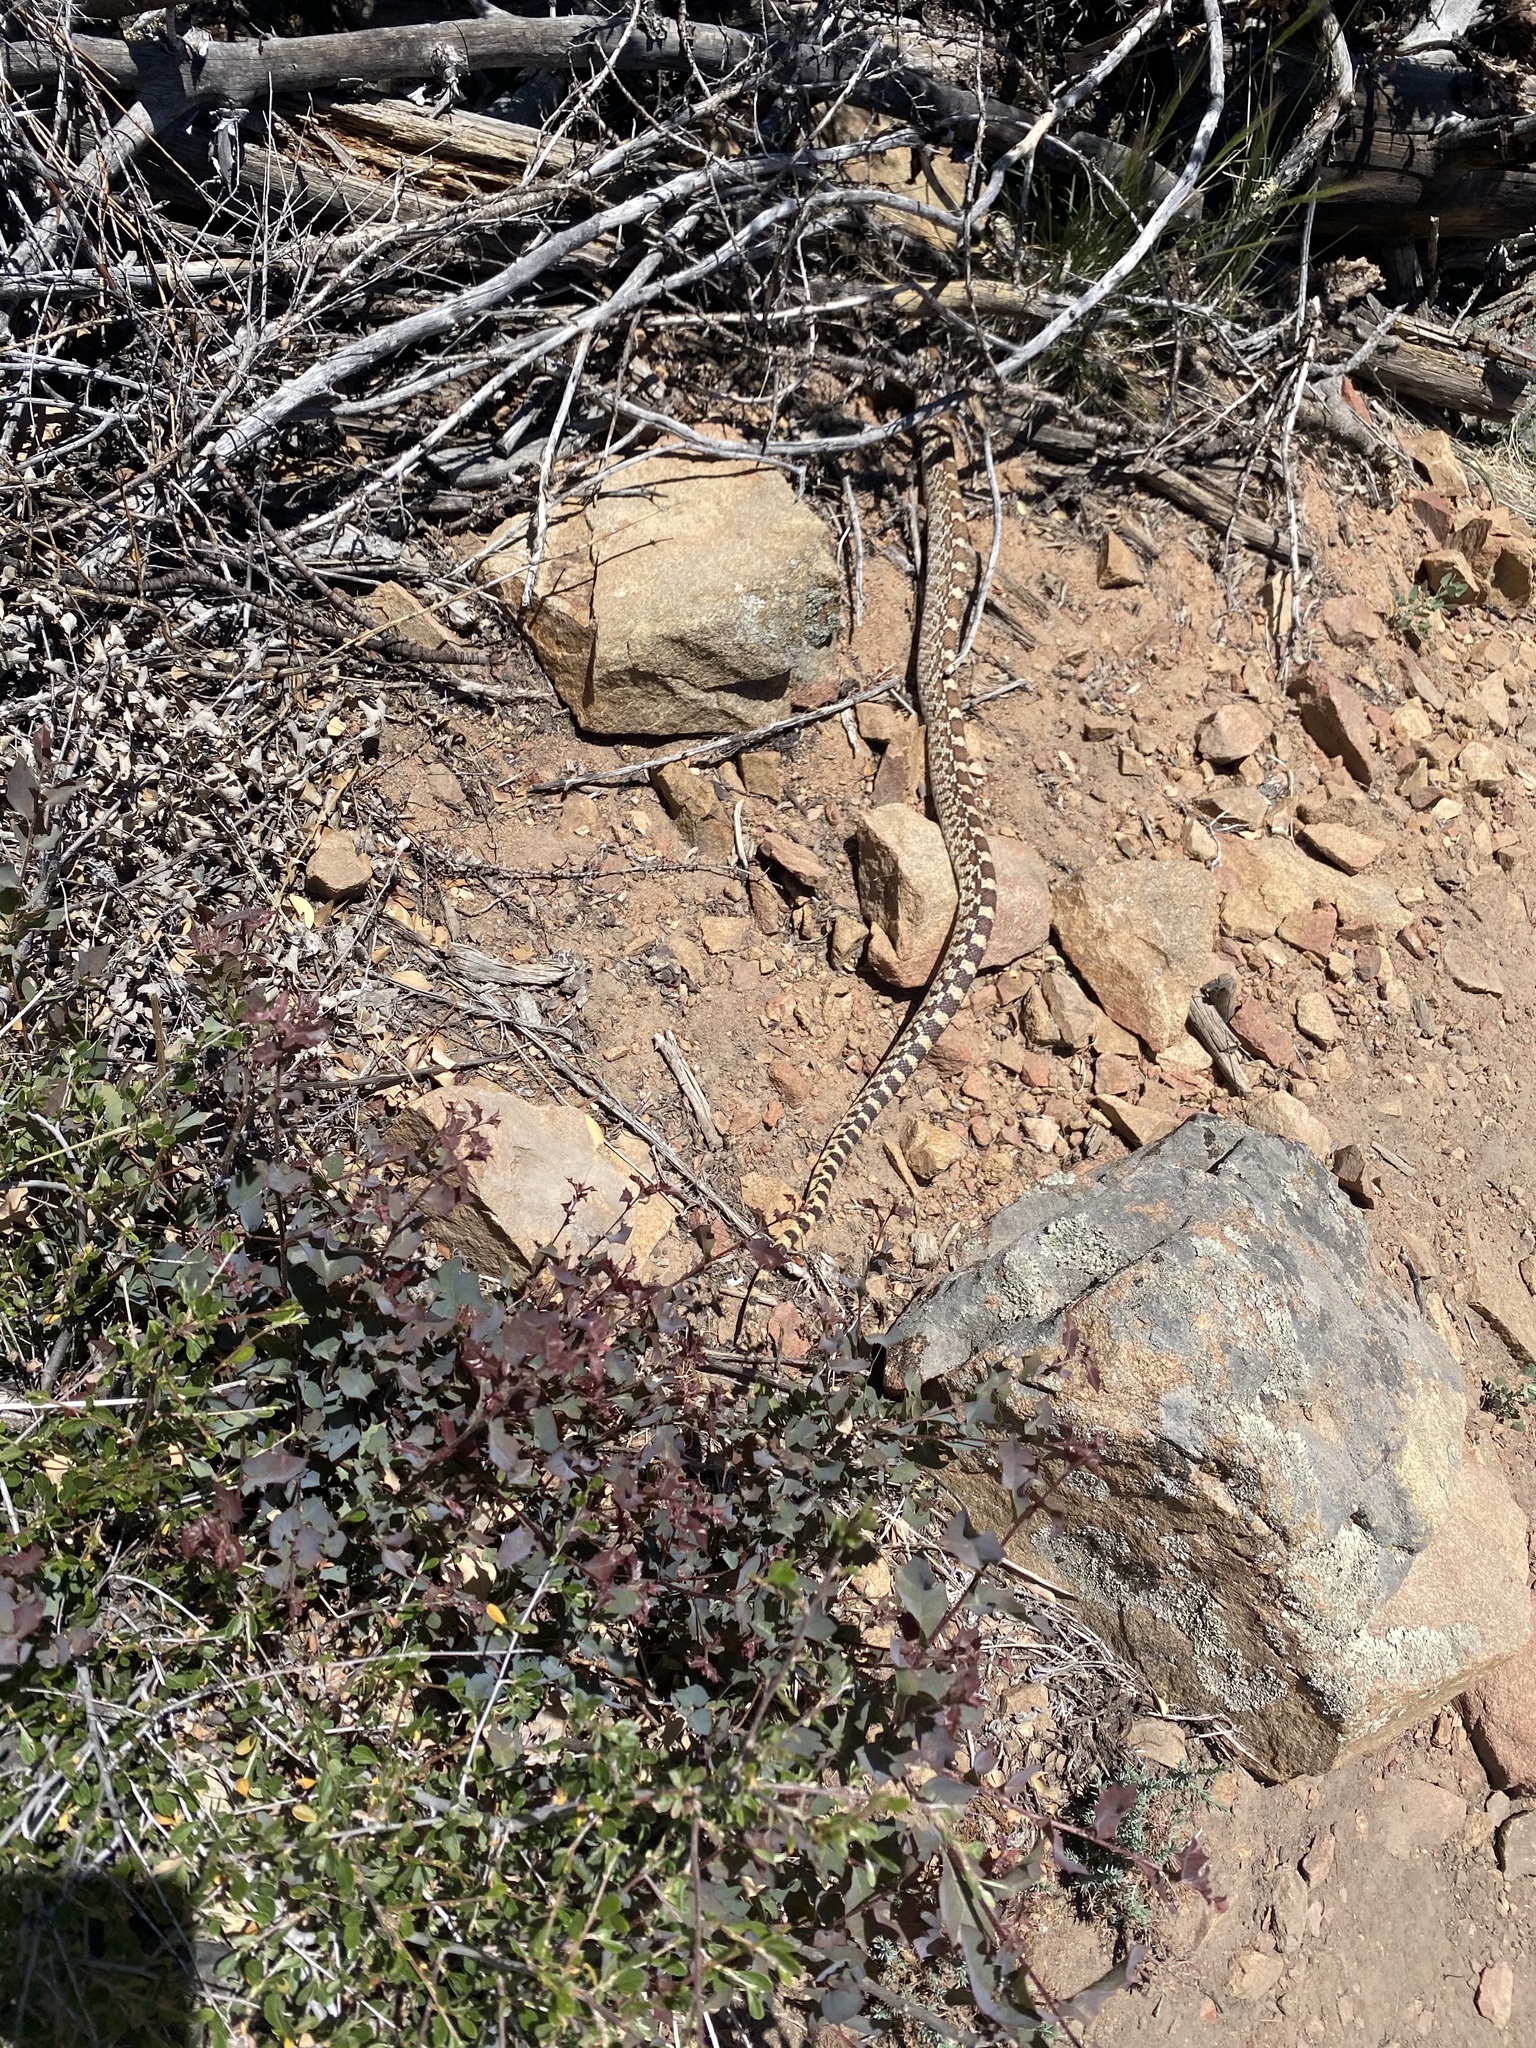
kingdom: Animalia
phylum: Chordata
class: Squamata
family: Colubridae
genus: Pituophis
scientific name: Pituophis catenifer
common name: Gopher snake
